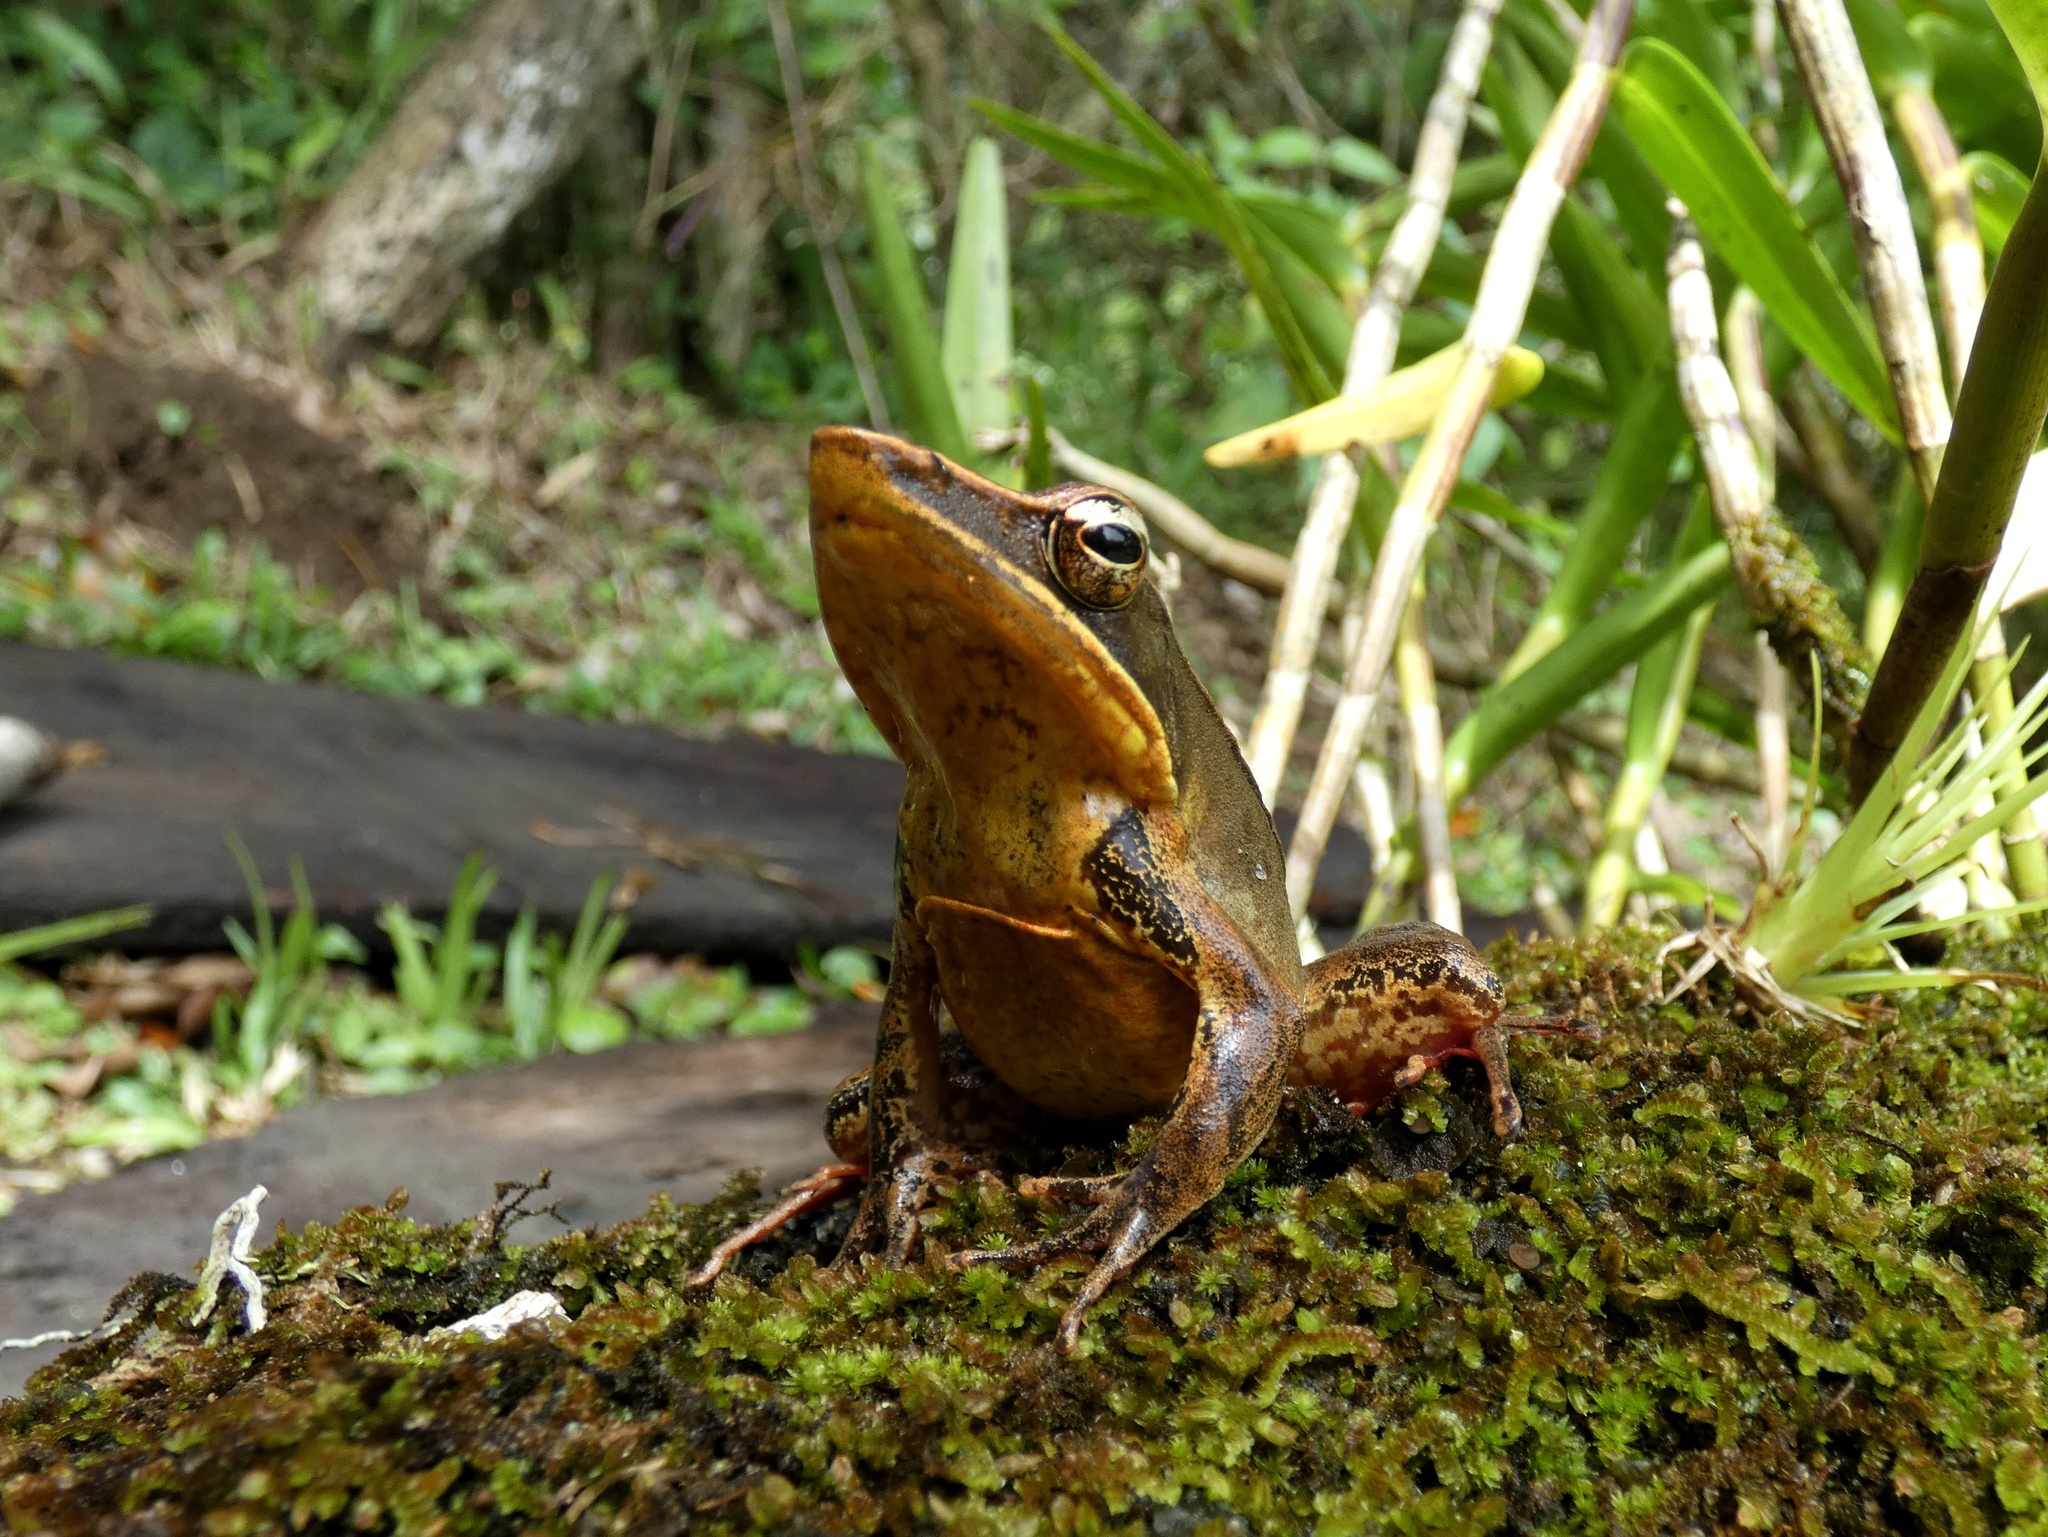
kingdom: Animalia
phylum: Chordata
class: Amphibia
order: Anura
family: Ranidae
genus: Lithobates
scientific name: Lithobates warszewitschii
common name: Warszewitsch's frog
